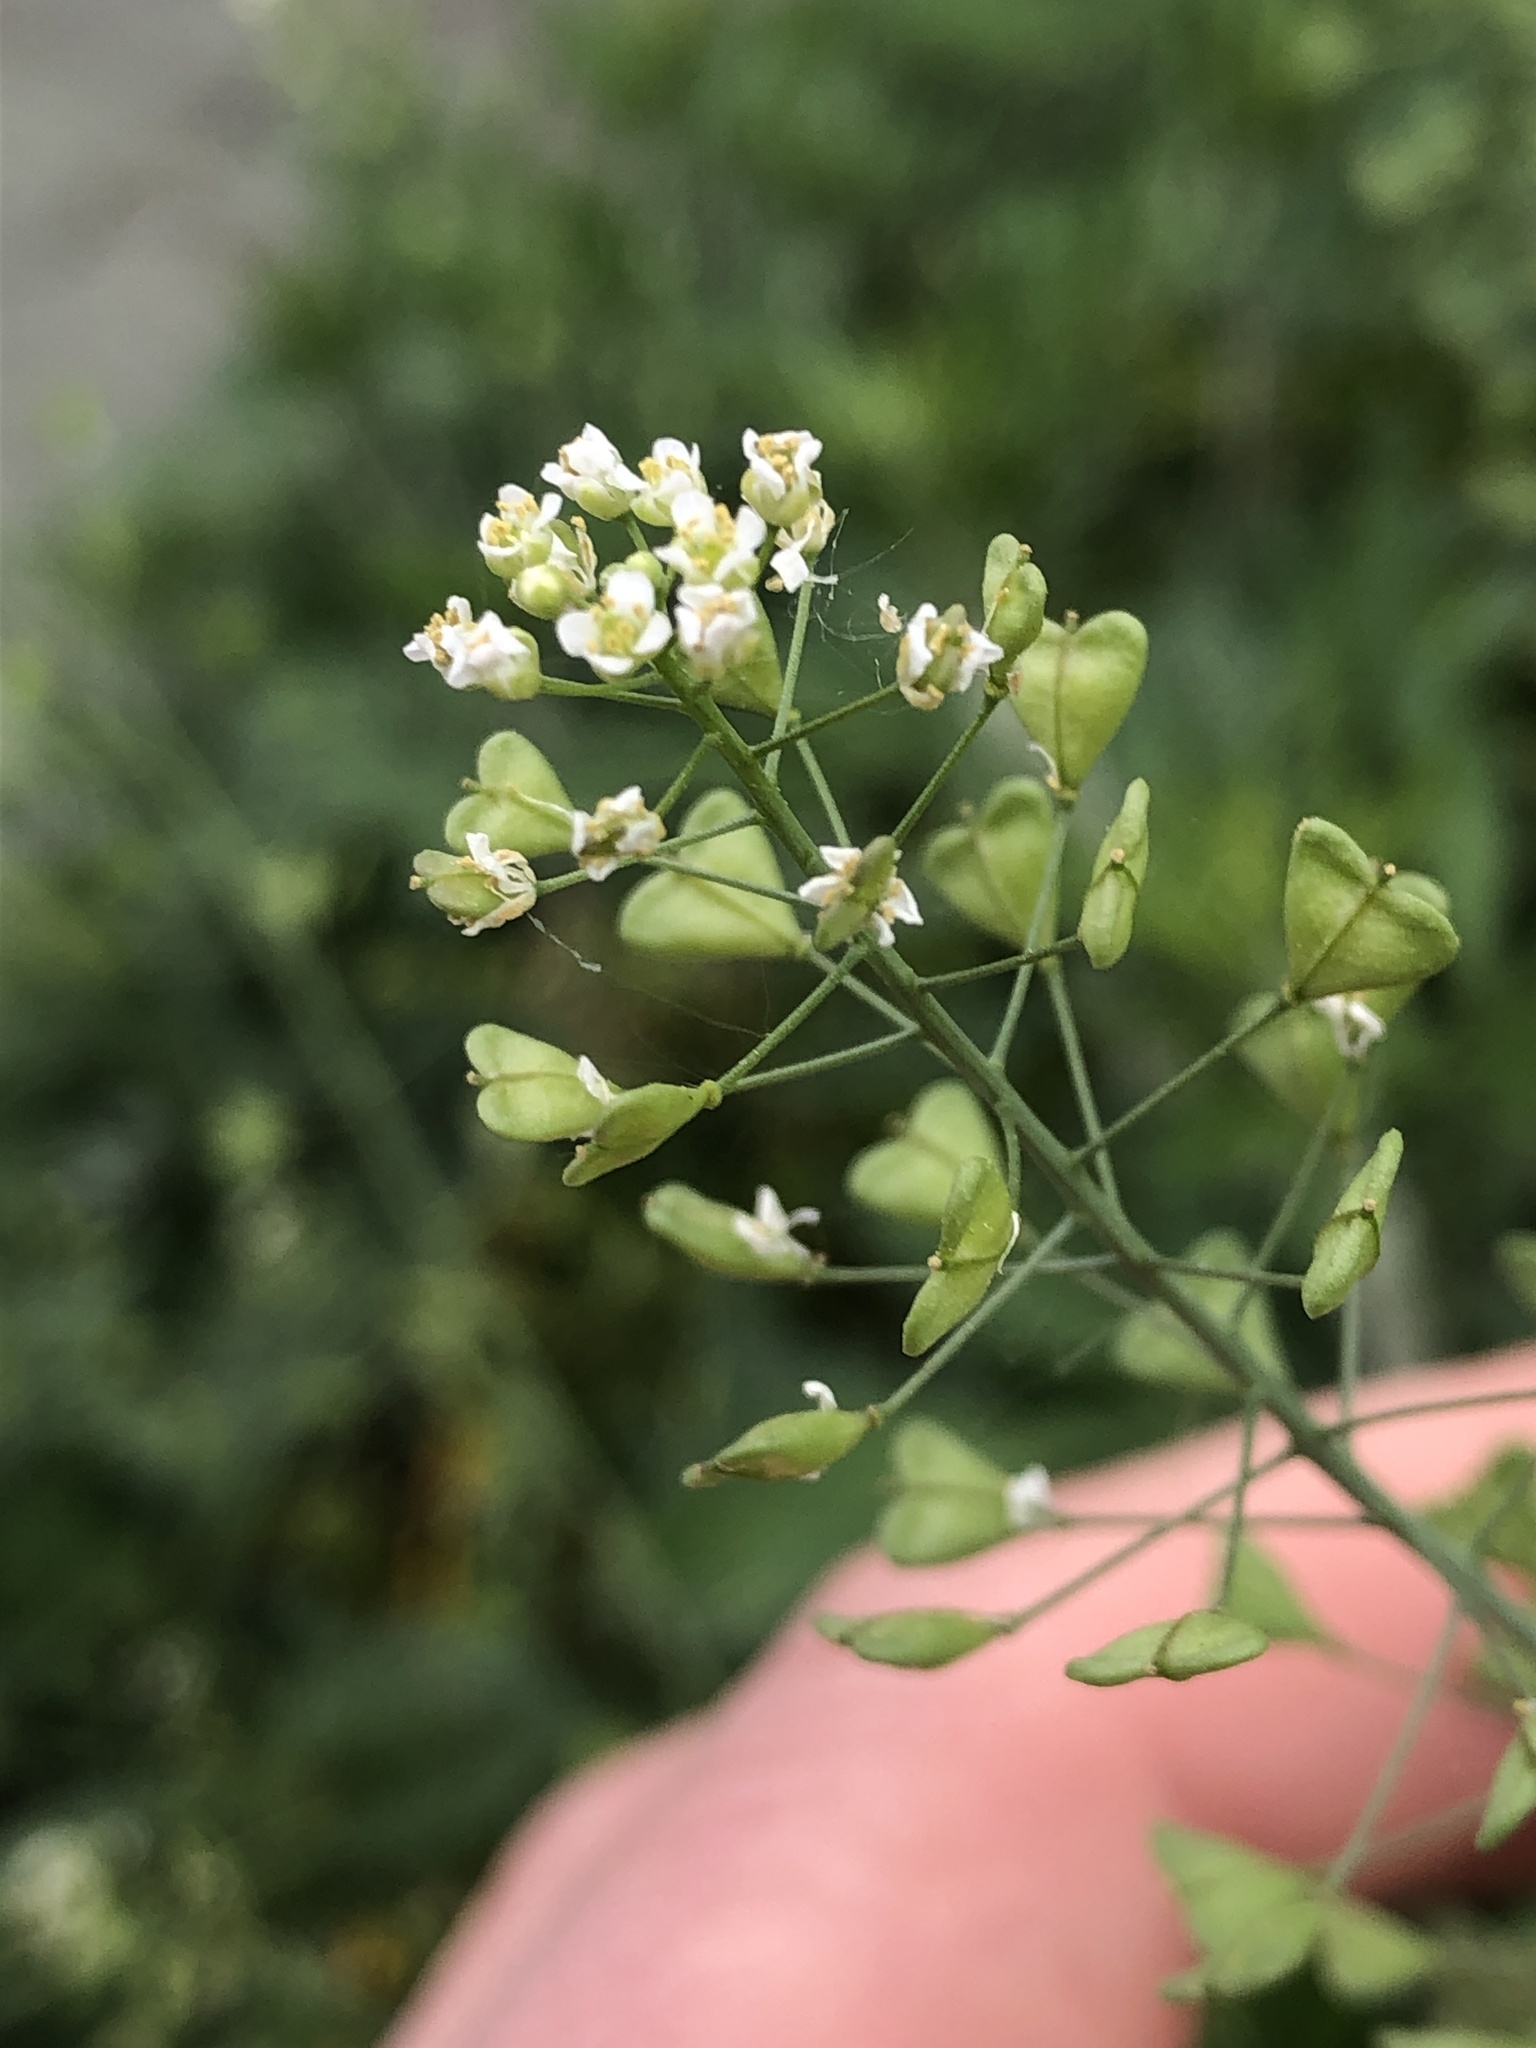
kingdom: Plantae
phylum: Tracheophyta
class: Magnoliopsida
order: Brassicales
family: Brassicaceae
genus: Capsella
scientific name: Capsella bursa-pastoris
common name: Shepherd's purse
